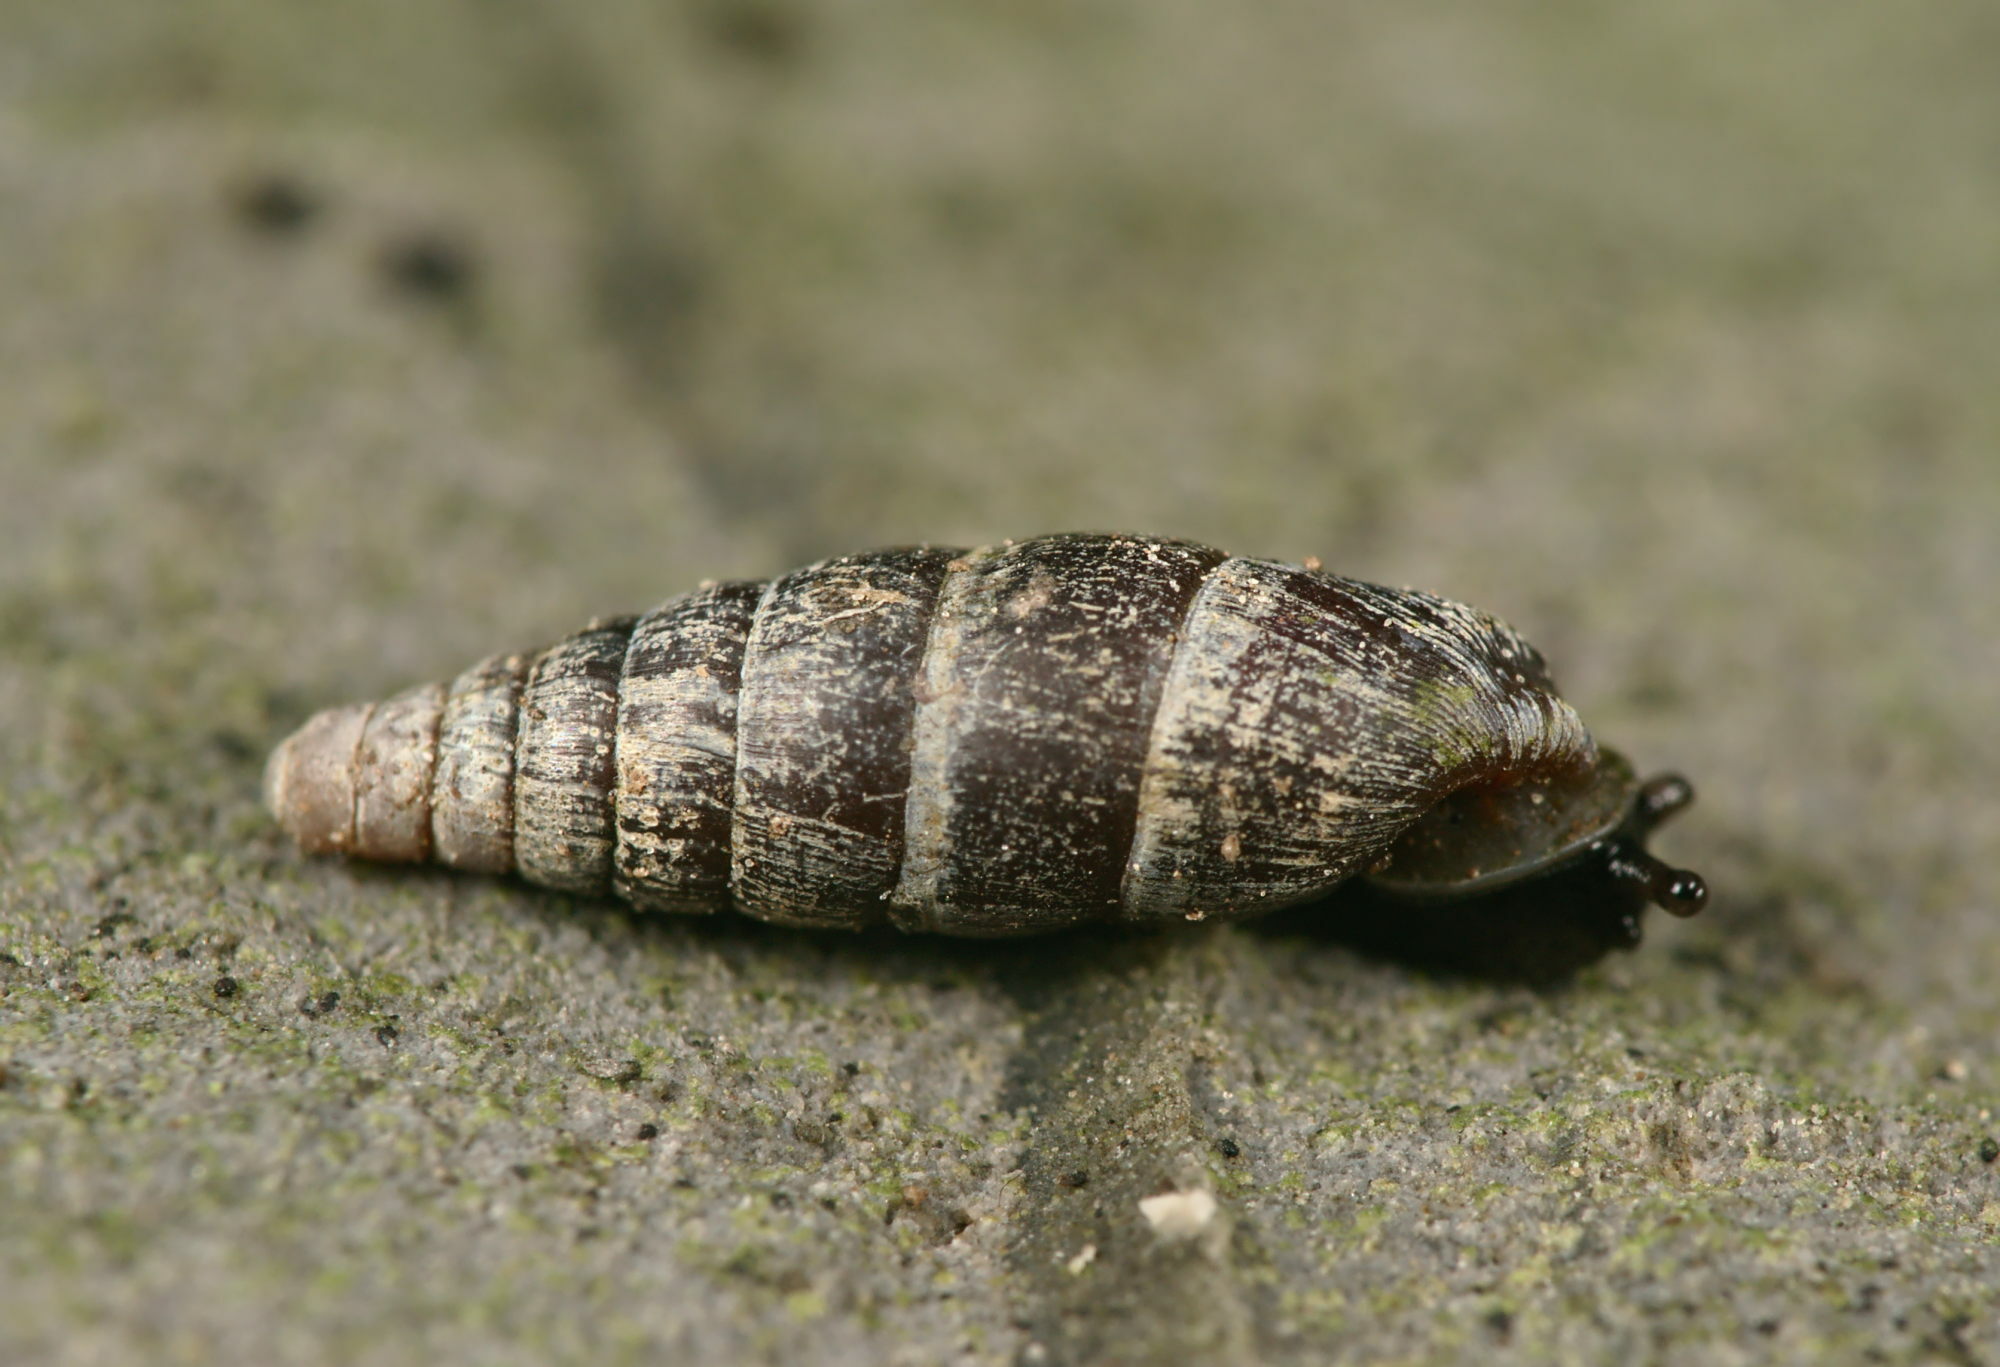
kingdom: Animalia
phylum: Mollusca
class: Gastropoda
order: Stylommatophora
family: Clausiliidae
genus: Clausilia
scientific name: Clausilia rugosa
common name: Tiny door snail
